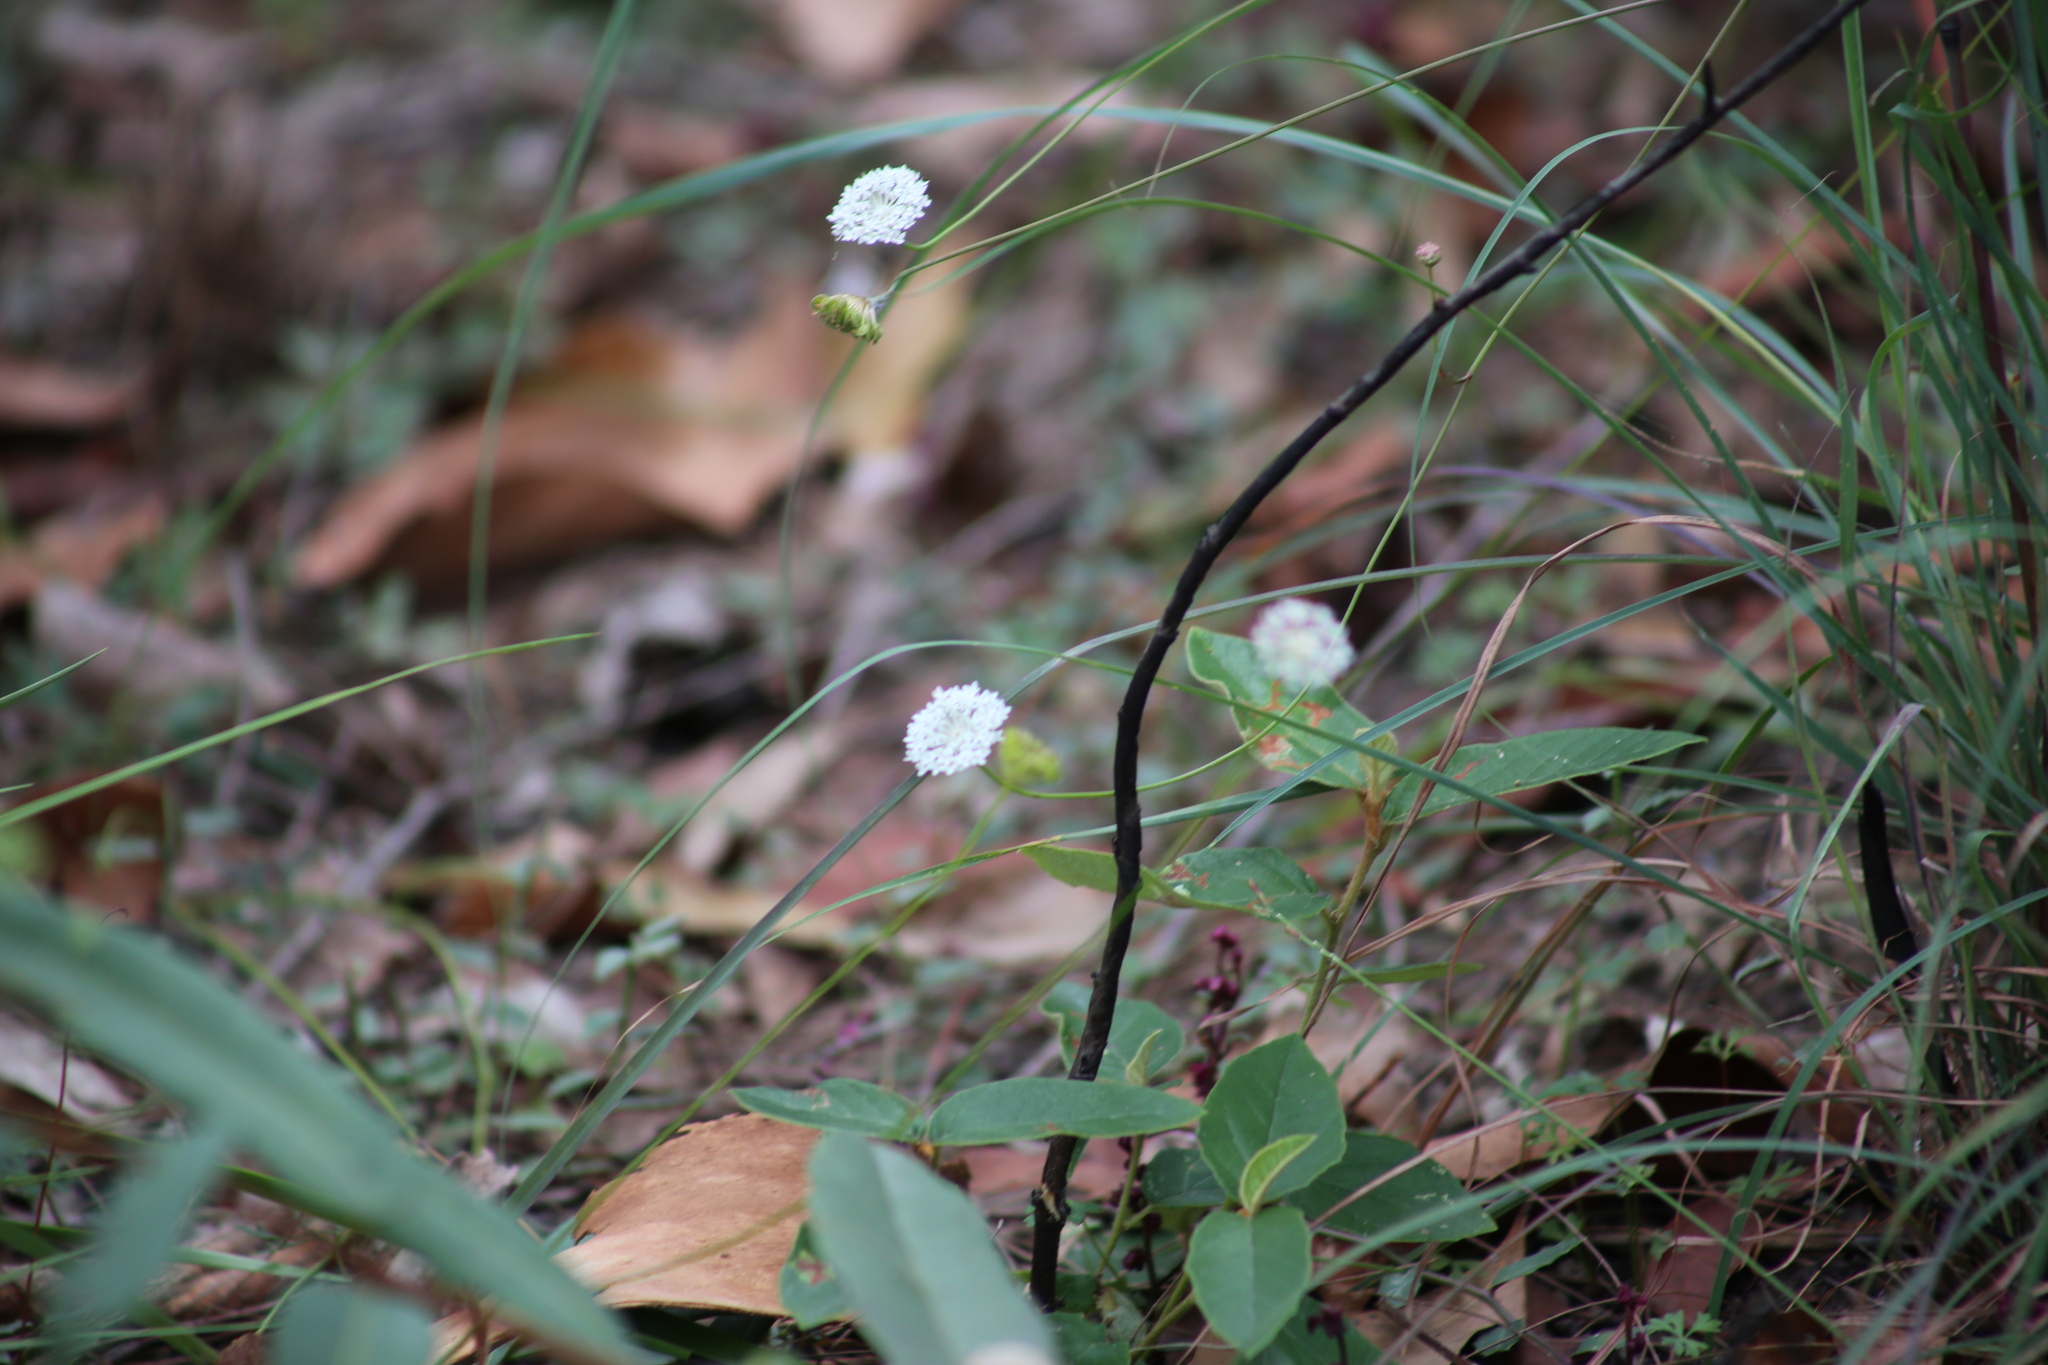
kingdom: Plantae
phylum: Tracheophyta
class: Magnoliopsida
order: Apiales
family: Araliaceae
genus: Trachymene
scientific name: Trachymene incisa
